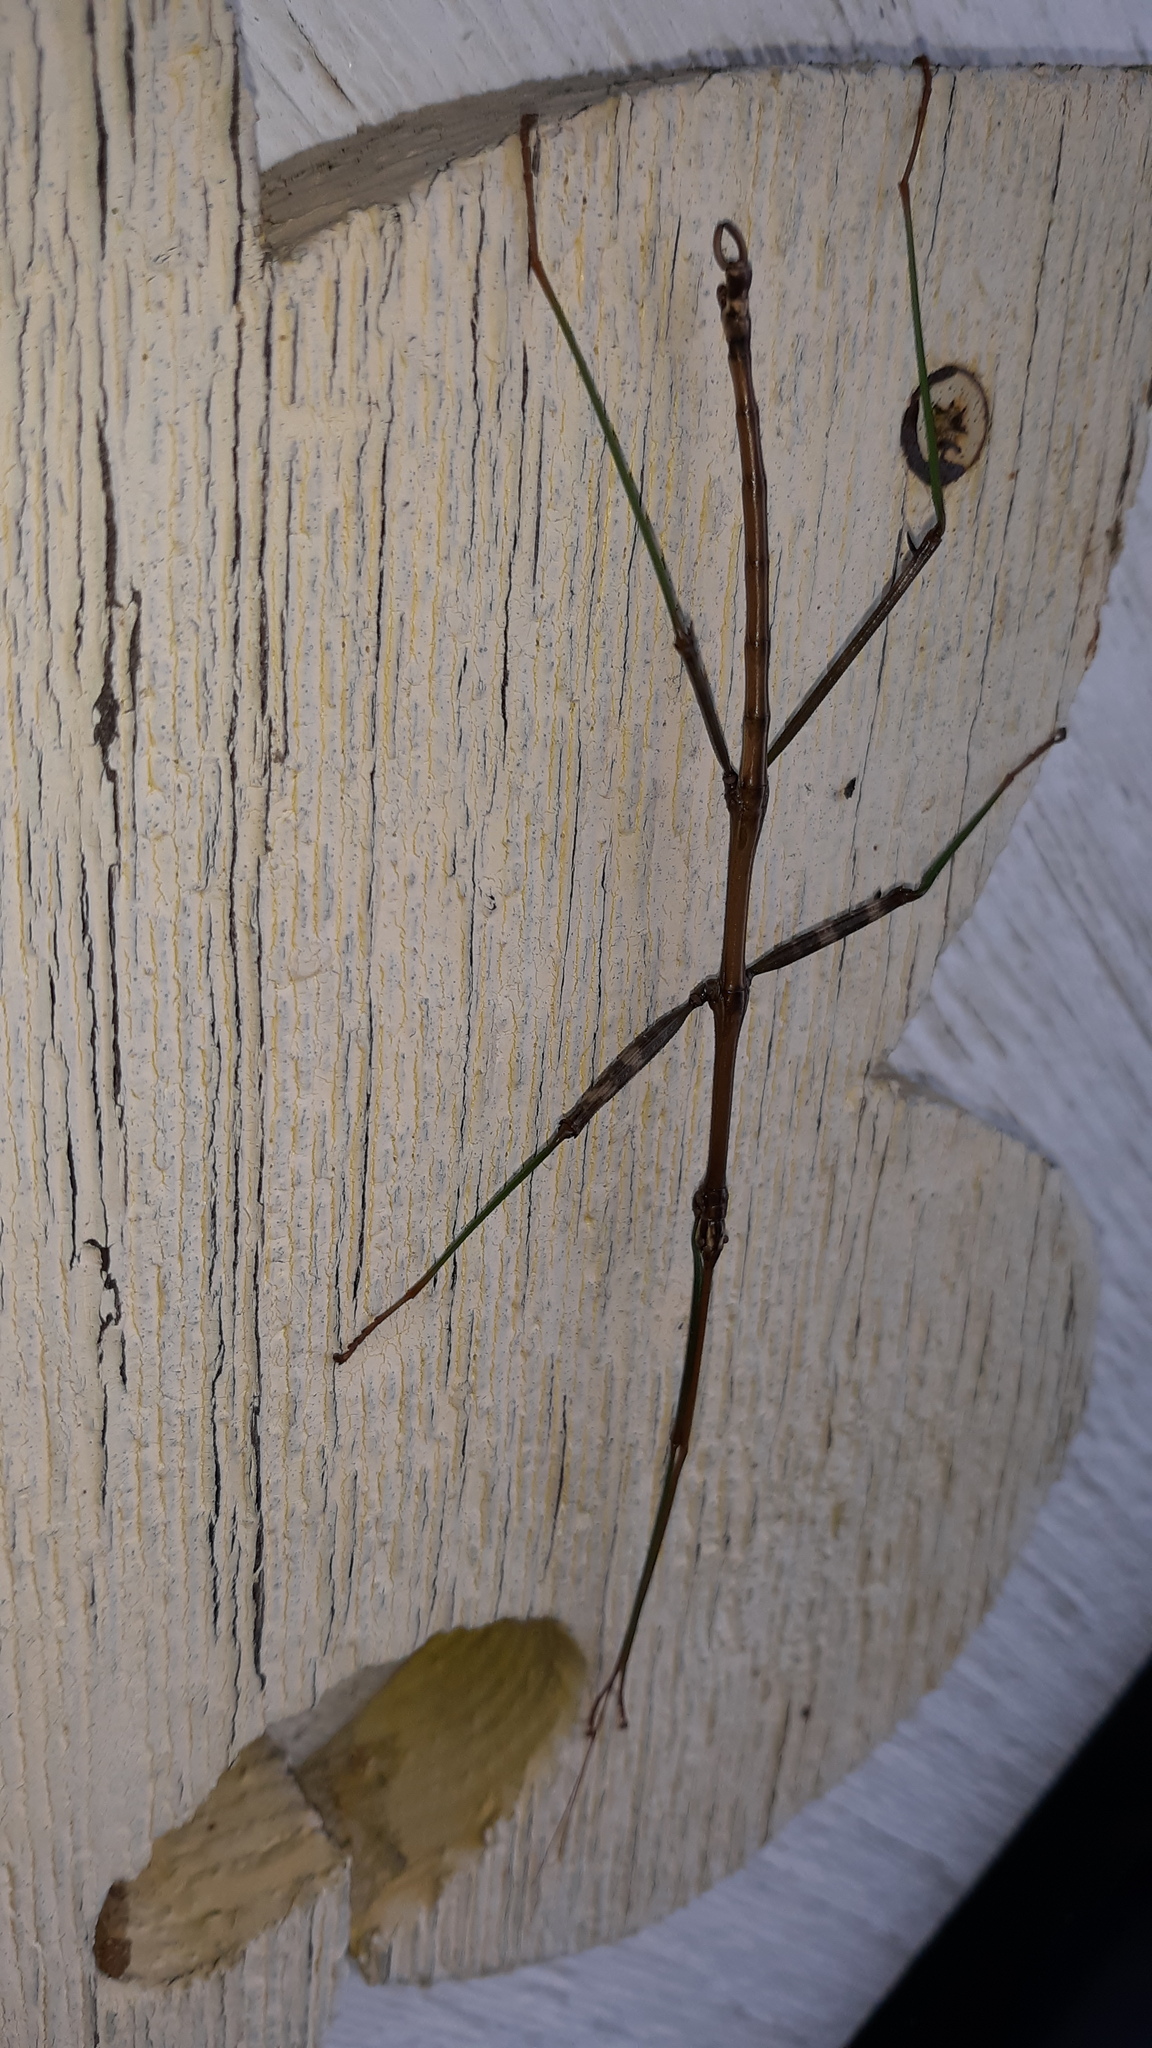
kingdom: Animalia
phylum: Arthropoda
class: Insecta
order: Phasmida
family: Diapheromeridae
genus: Diapheromera
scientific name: Diapheromera femorata
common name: Common american walkingstick
